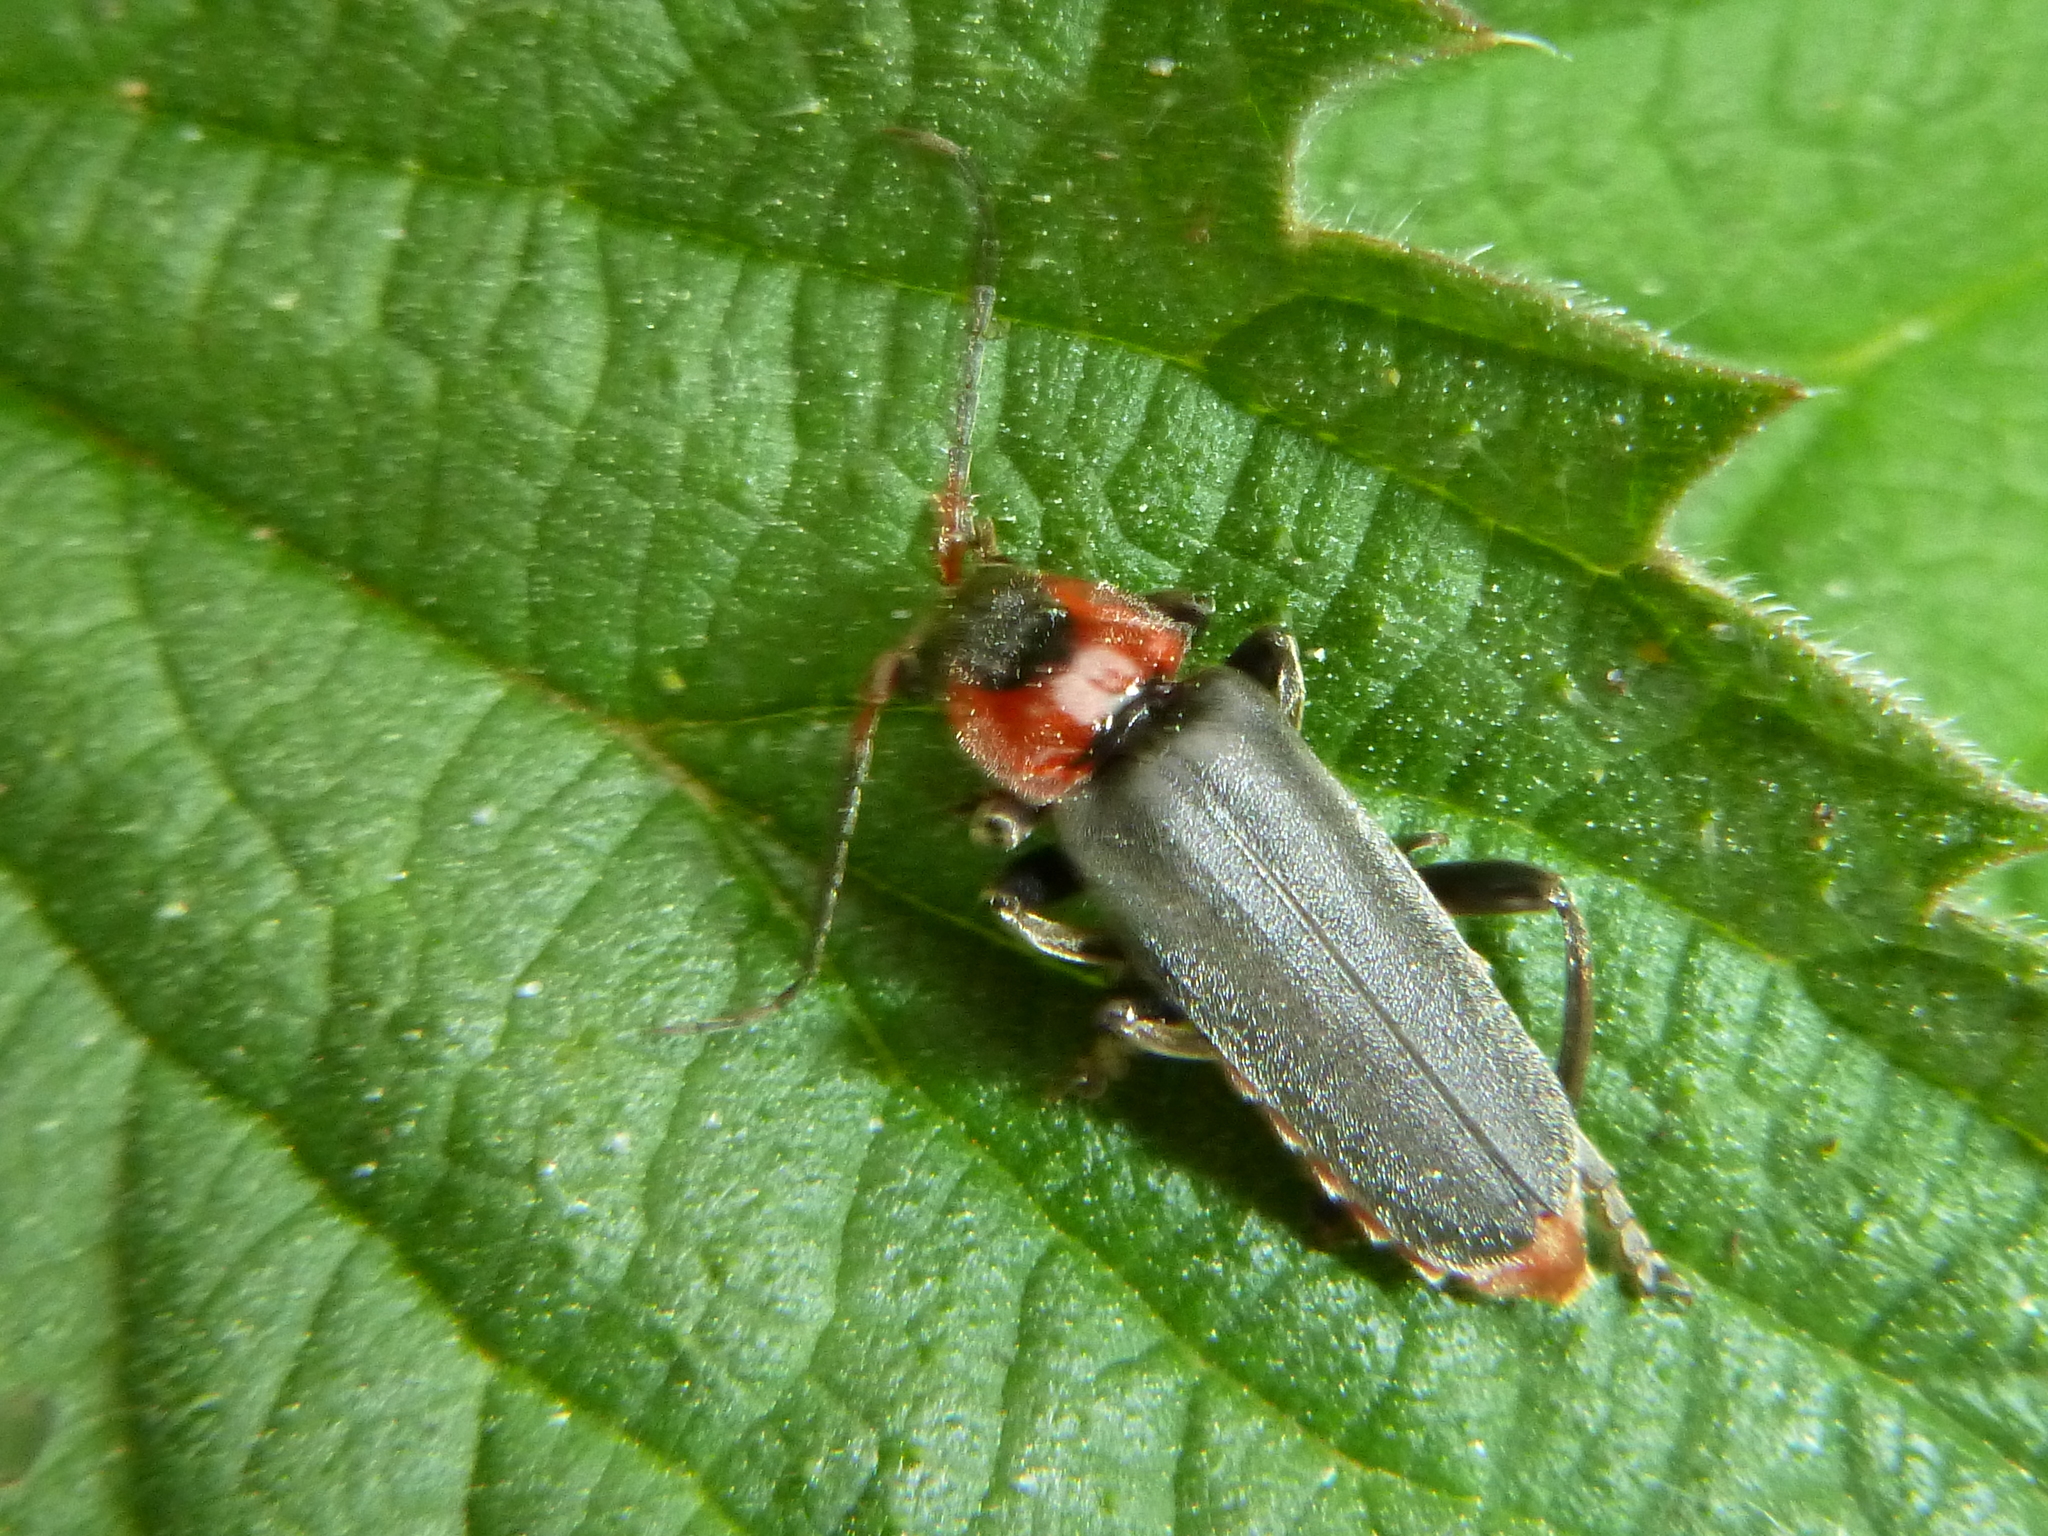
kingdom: Animalia
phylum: Arthropoda
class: Insecta
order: Coleoptera
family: Cantharidae
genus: Cantharis
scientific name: Cantharis fusca
